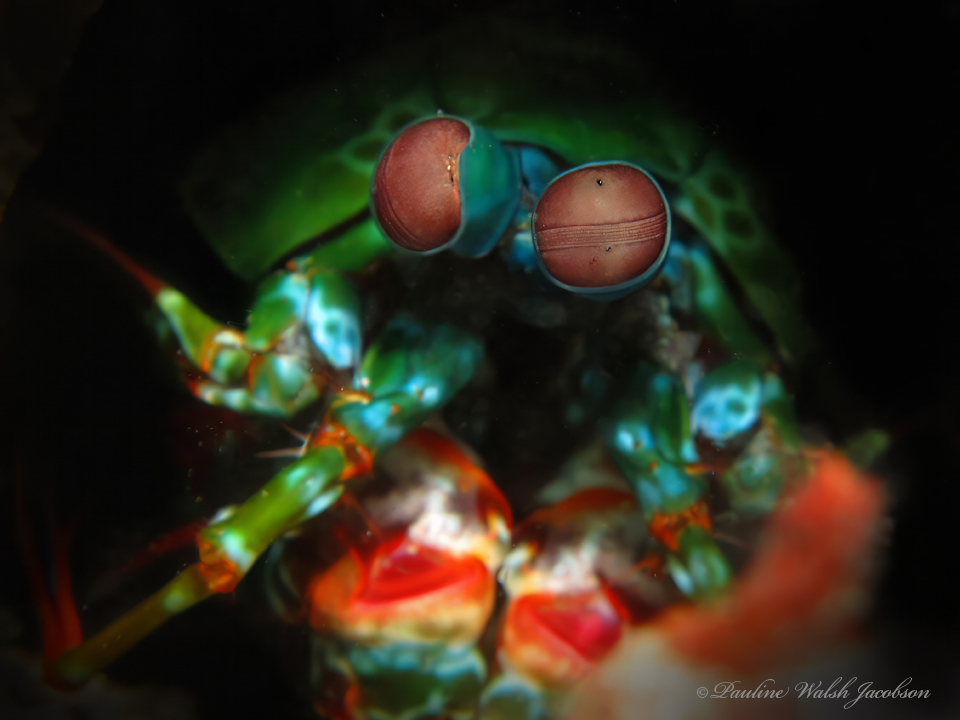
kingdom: Animalia
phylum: Arthropoda
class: Malacostraca
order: Stomatopoda
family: Odontodactylidae
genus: Odontodactylus
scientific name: Odontodactylus scyllarus
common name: Peacock mantis shrimp
